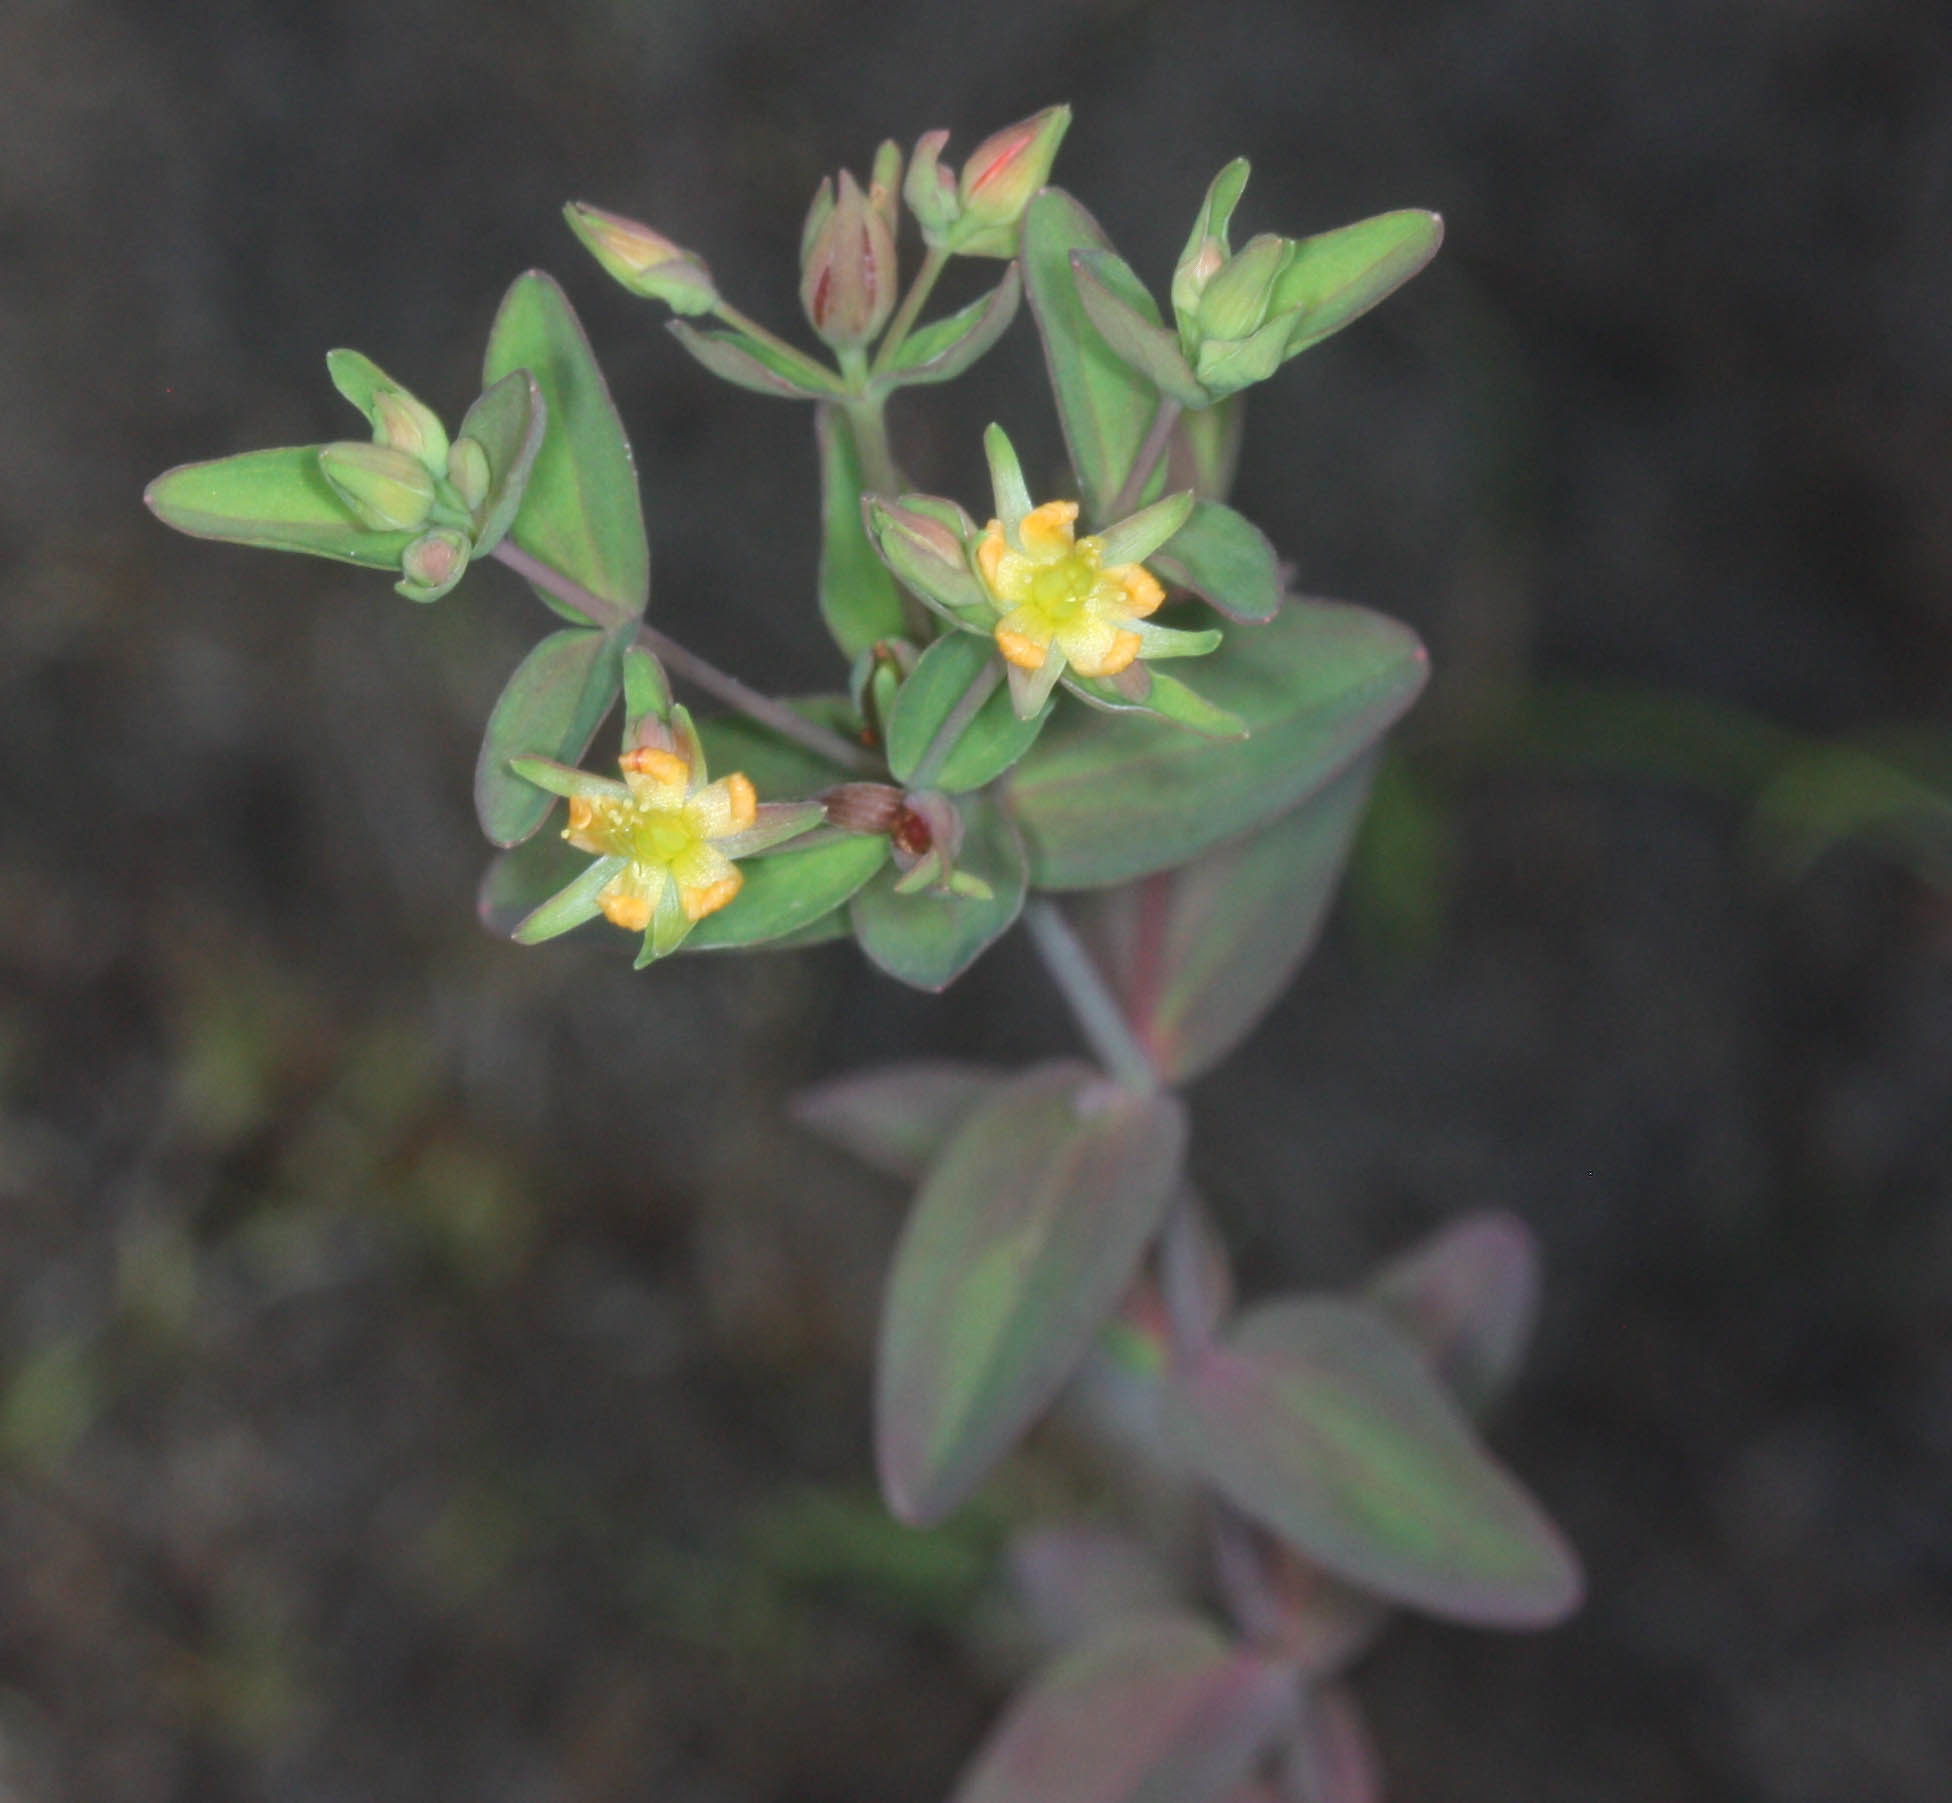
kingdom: Plantae
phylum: Tracheophyta
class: Magnoliopsida
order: Malpighiales
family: Hypericaceae
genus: Hypericum
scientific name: Hypericum boreale
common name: Northern bog st. john's-wort
